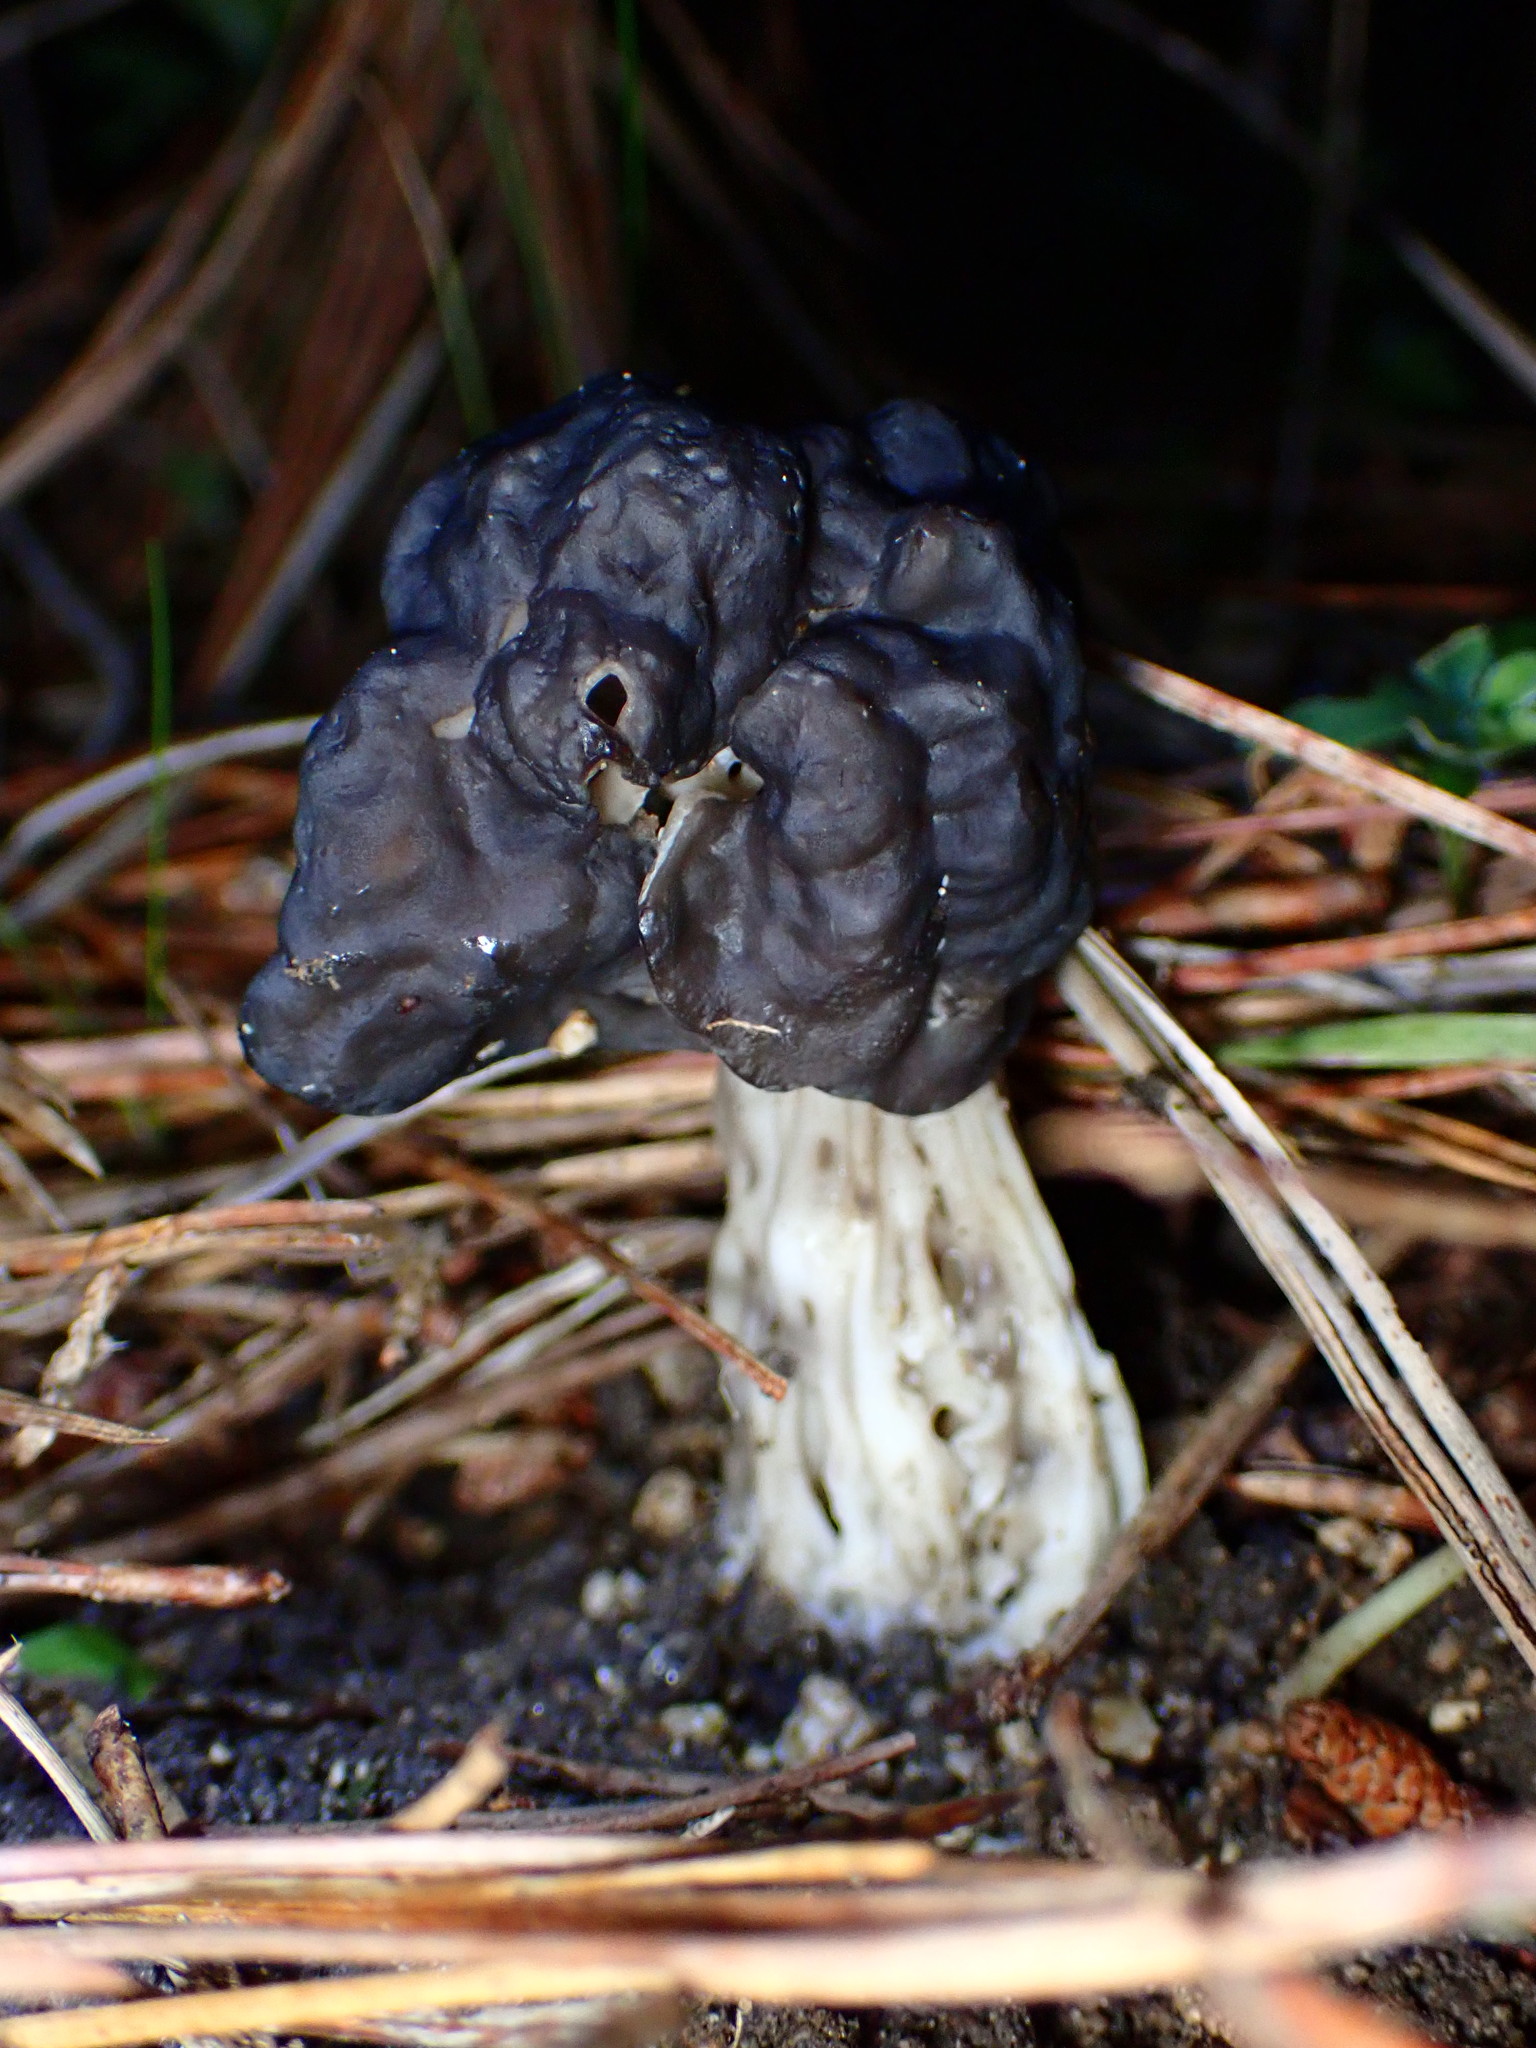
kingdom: Fungi
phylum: Ascomycota
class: Pezizomycetes
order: Pezizales
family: Helvellaceae
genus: Helvella
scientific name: Helvella vespertina
